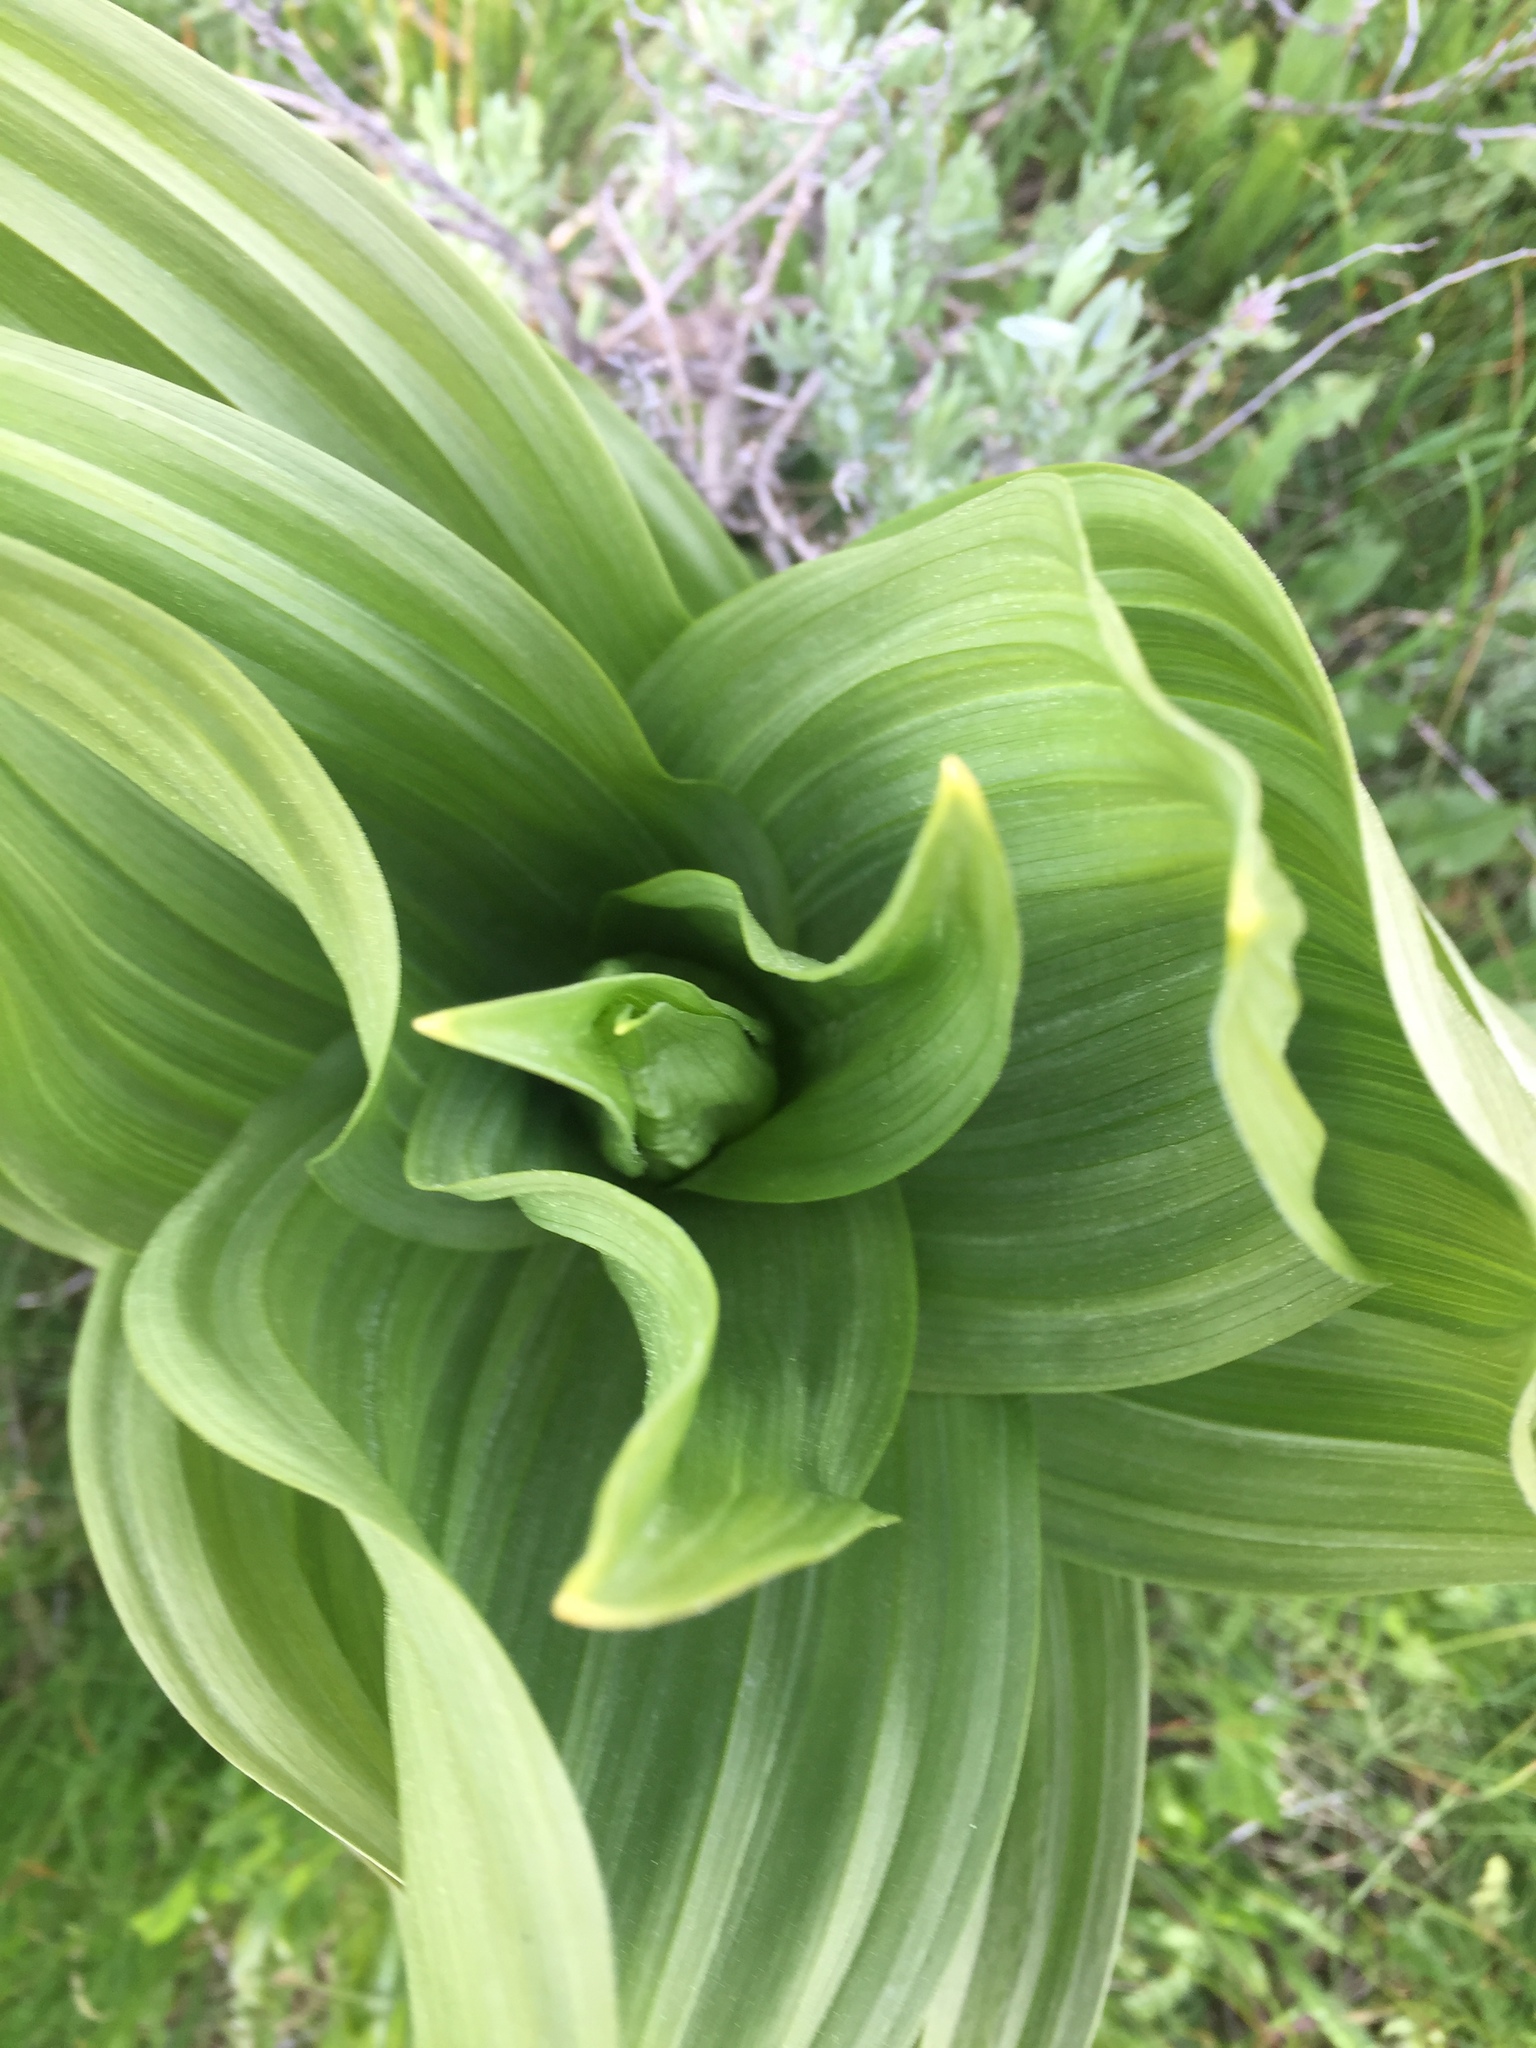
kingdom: Plantae
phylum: Tracheophyta
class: Liliopsida
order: Liliales
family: Melanthiaceae
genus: Veratrum
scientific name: Veratrum californicum
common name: California veratrum
